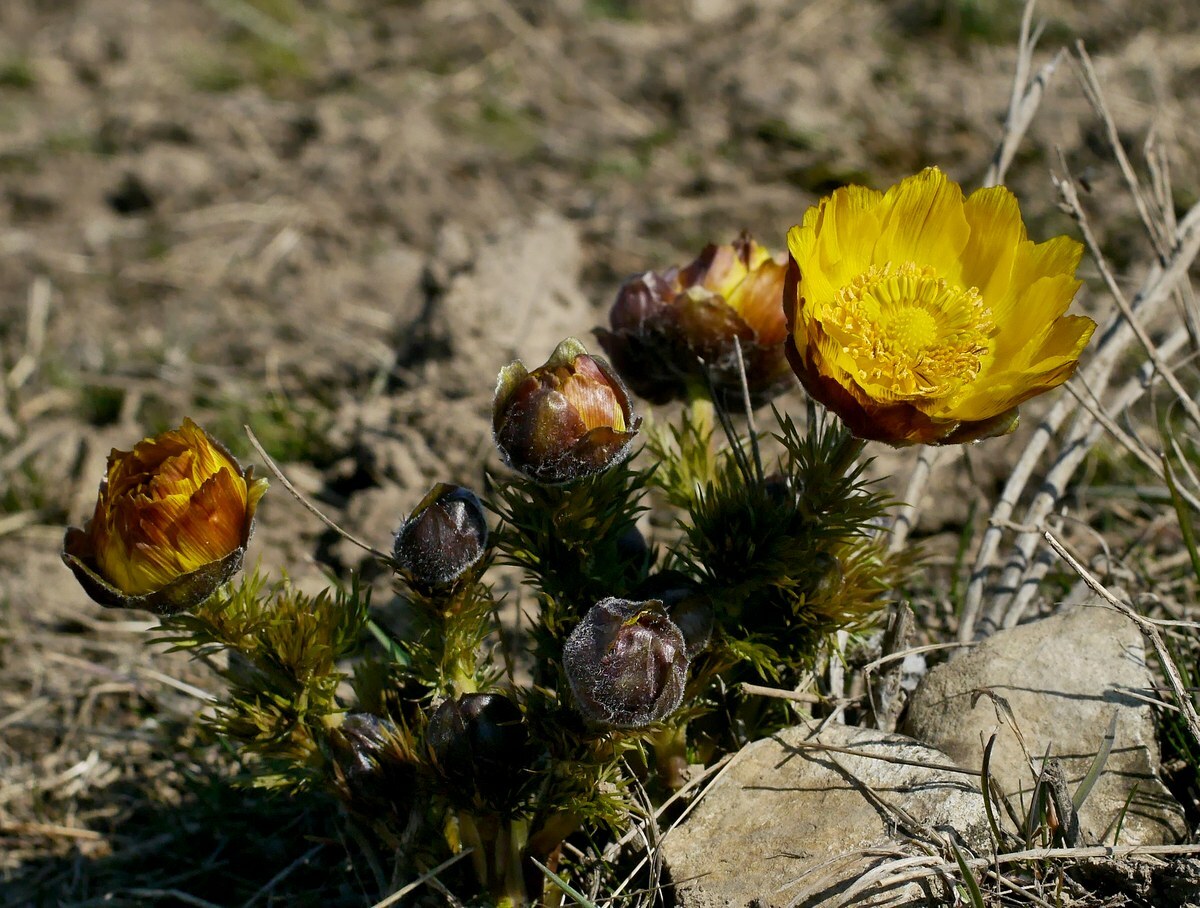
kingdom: Plantae
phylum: Tracheophyta
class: Magnoliopsida
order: Ranunculales
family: Ranunculaceae
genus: Adonis
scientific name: Adonis vernalis
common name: Yellow pheasants-eye
